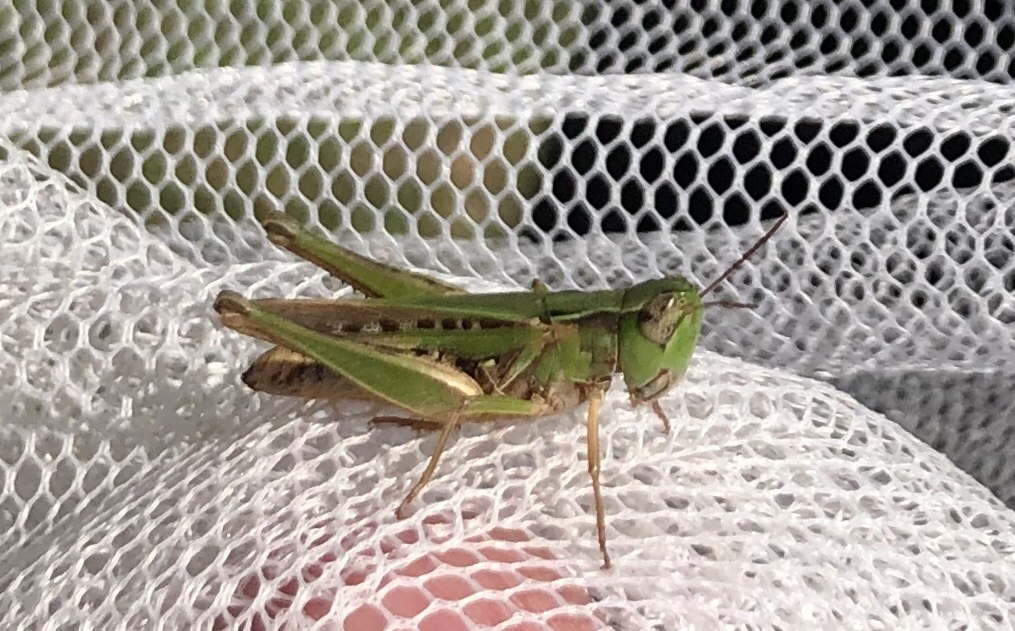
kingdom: Animalia
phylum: Arthropoda
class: Insecta
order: Orthoptera
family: Acrididae
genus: Orphulella
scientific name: Orphulella speciosa
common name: Pasture grasshopper
